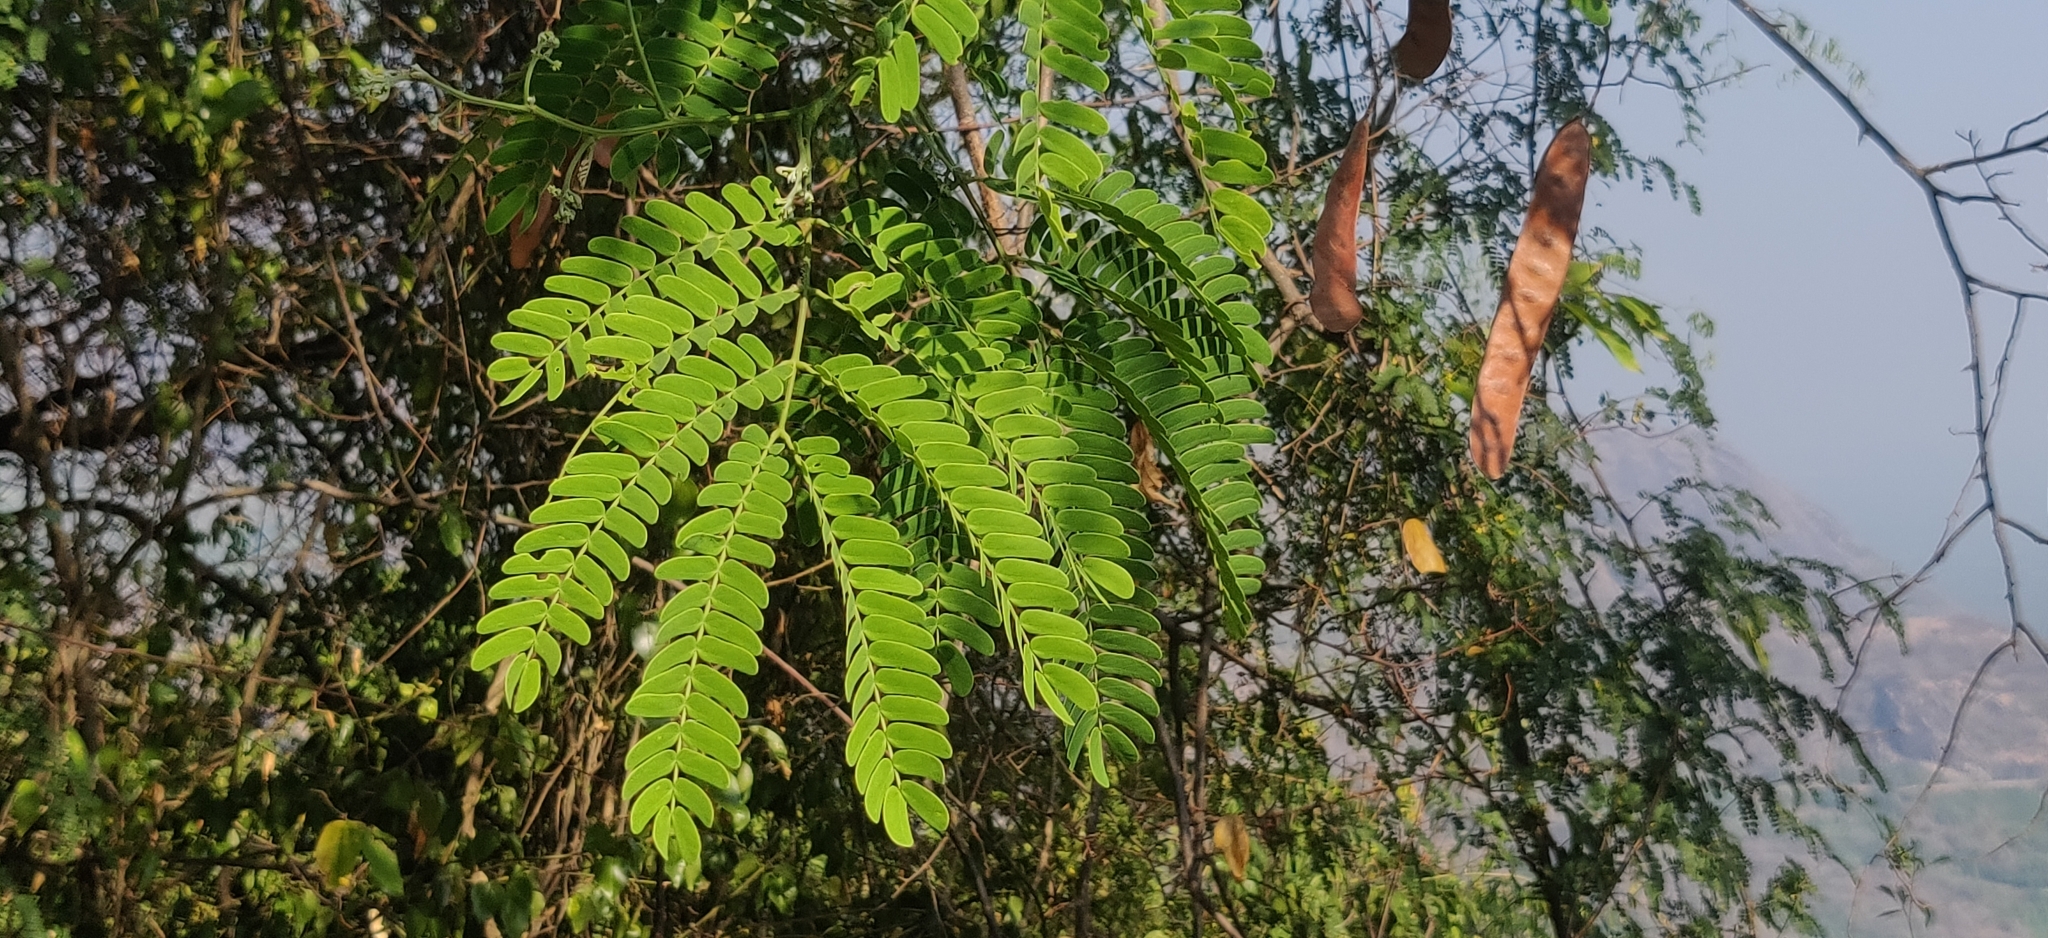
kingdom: Plantae
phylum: Tracheophyta
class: Magnoliopsida
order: Fabales
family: Fabaceae
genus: Albizia
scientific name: Albizia amara
